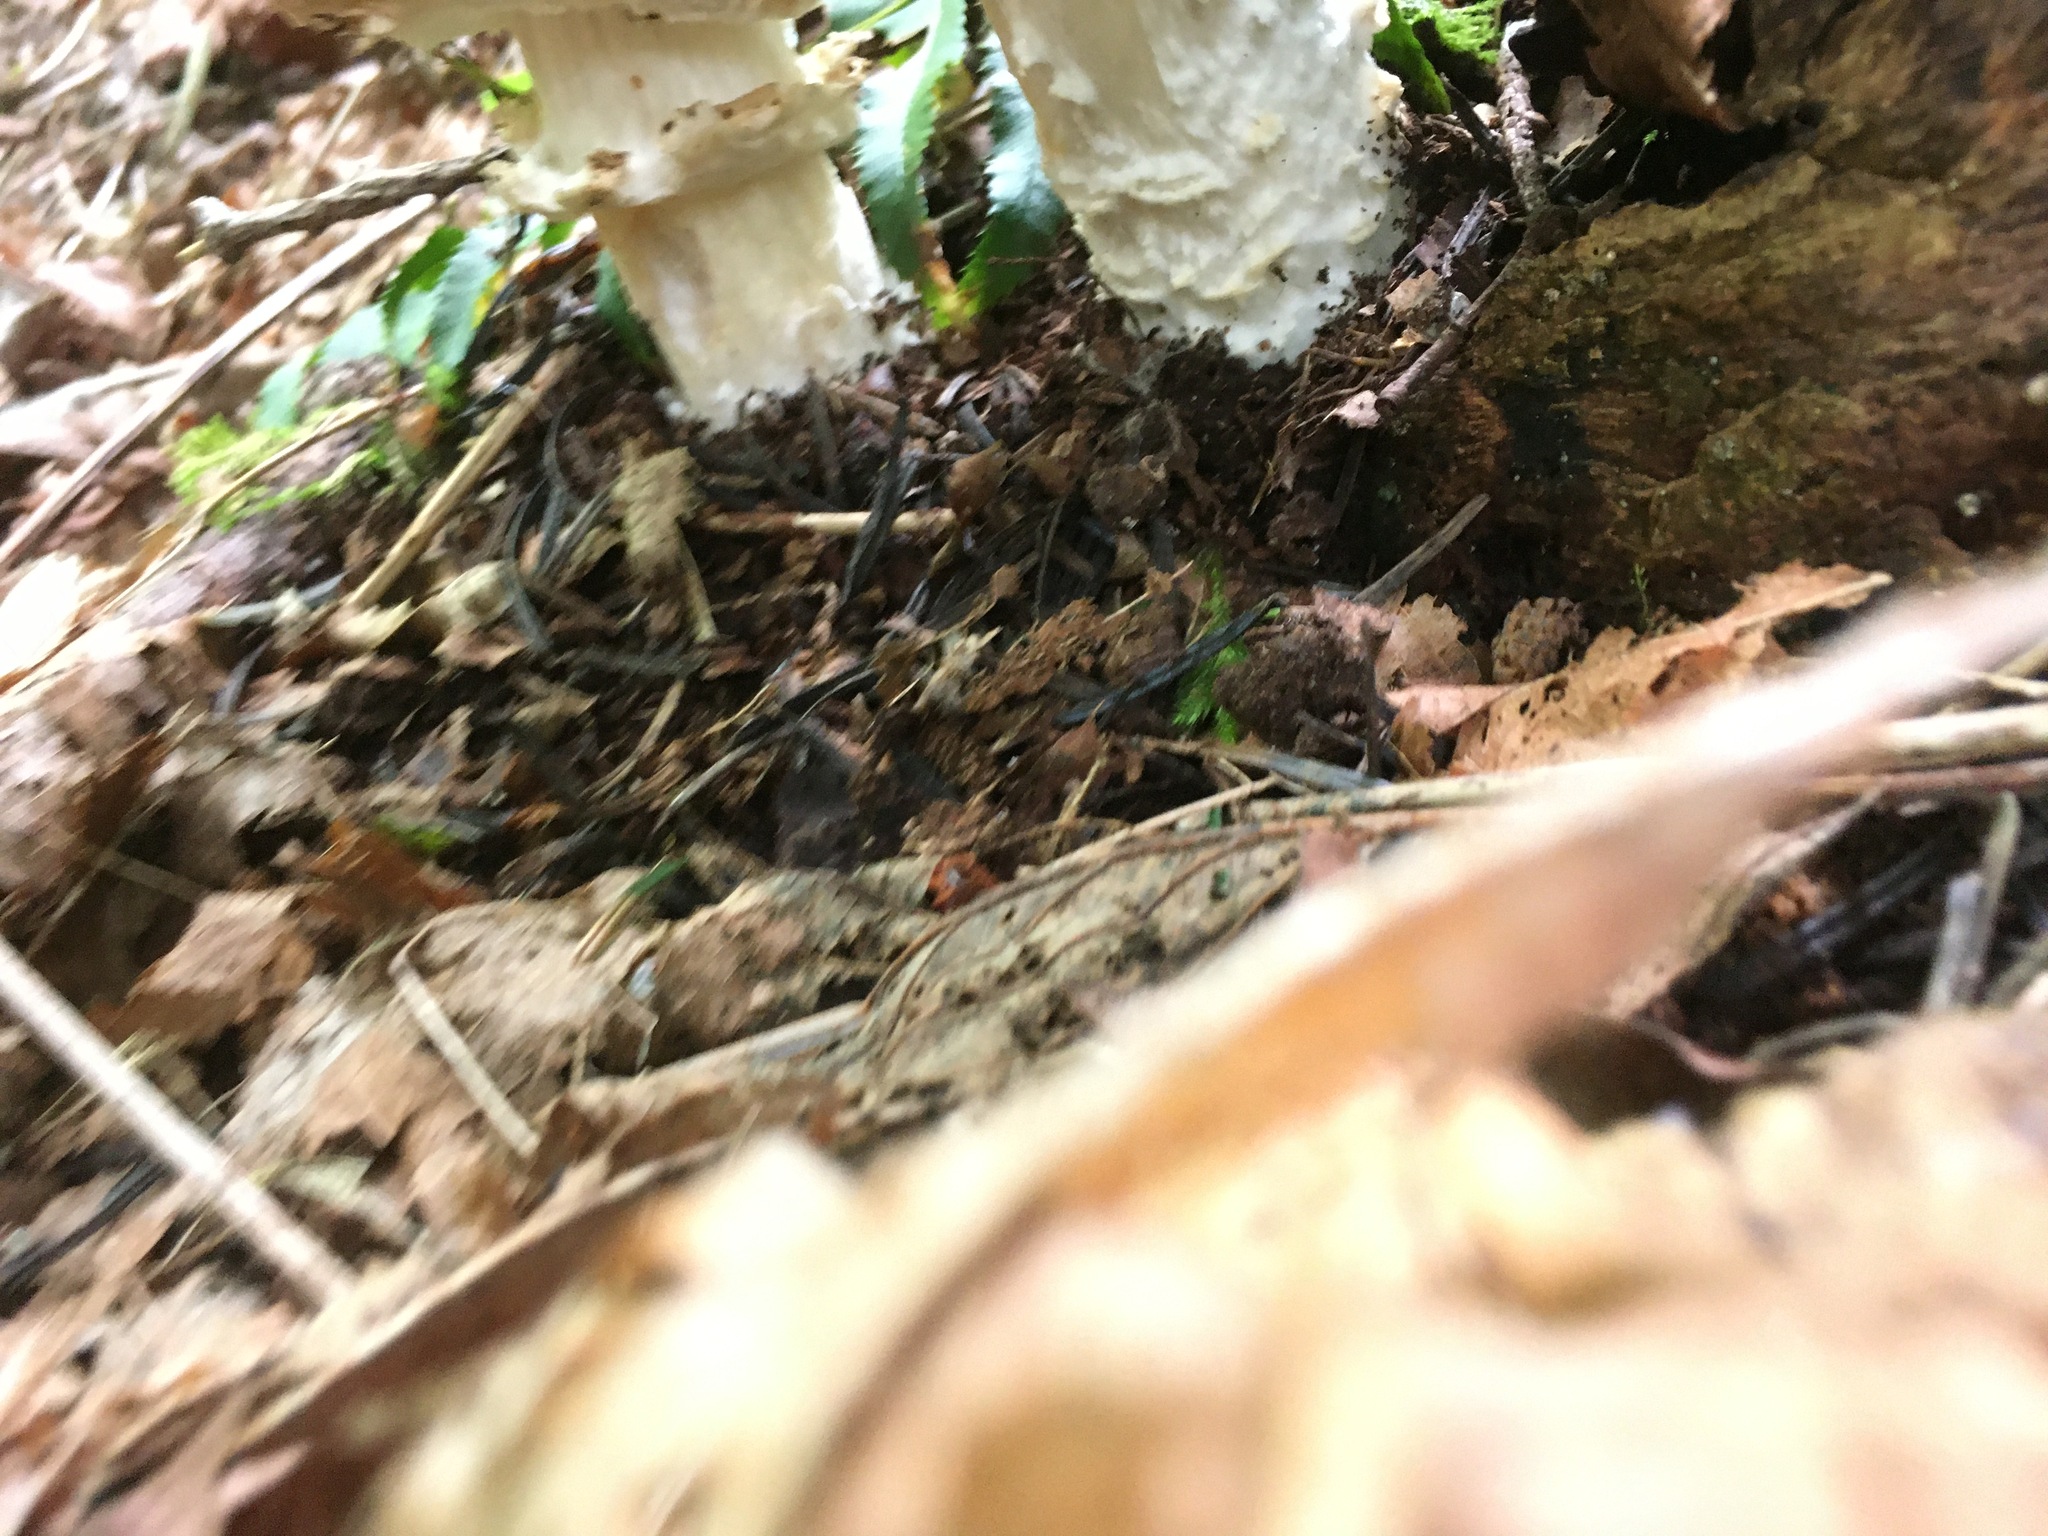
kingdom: Fungi
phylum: Basidiomycota
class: Agaricomycetes
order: Agaricales
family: Agaricaceae
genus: Agaricus
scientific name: Agaricus augustus
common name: Prince
